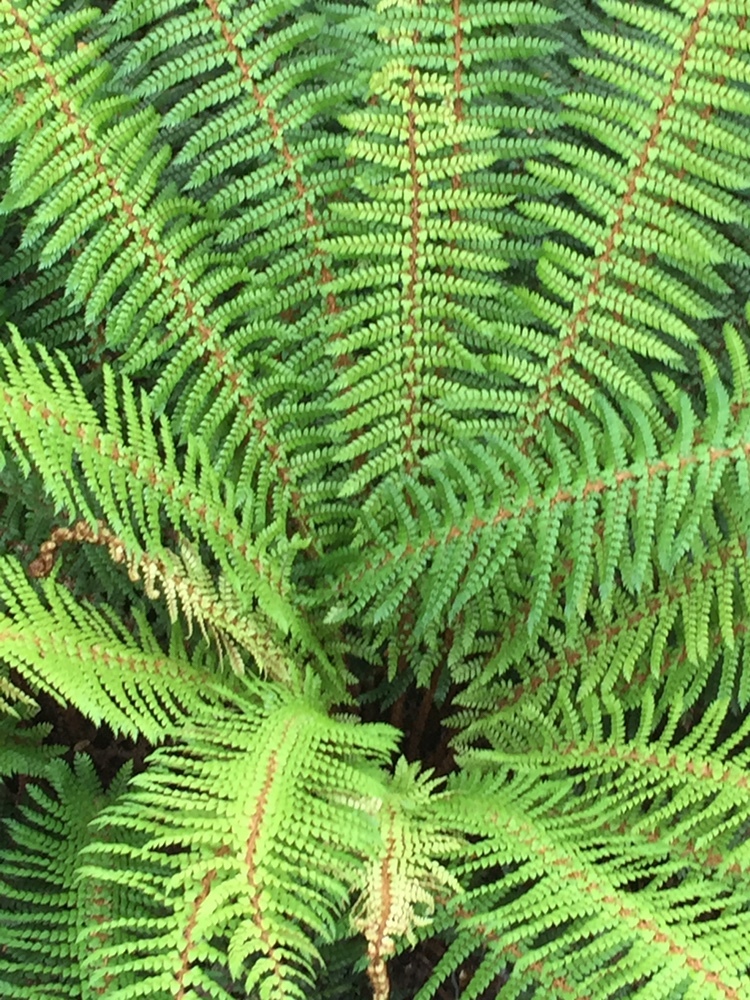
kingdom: Plantae
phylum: Tracheophyta
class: Polypodiopsida
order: Polypodiales
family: Dryopteridaceae
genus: Polystichum
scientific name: Polystichum vestitum
